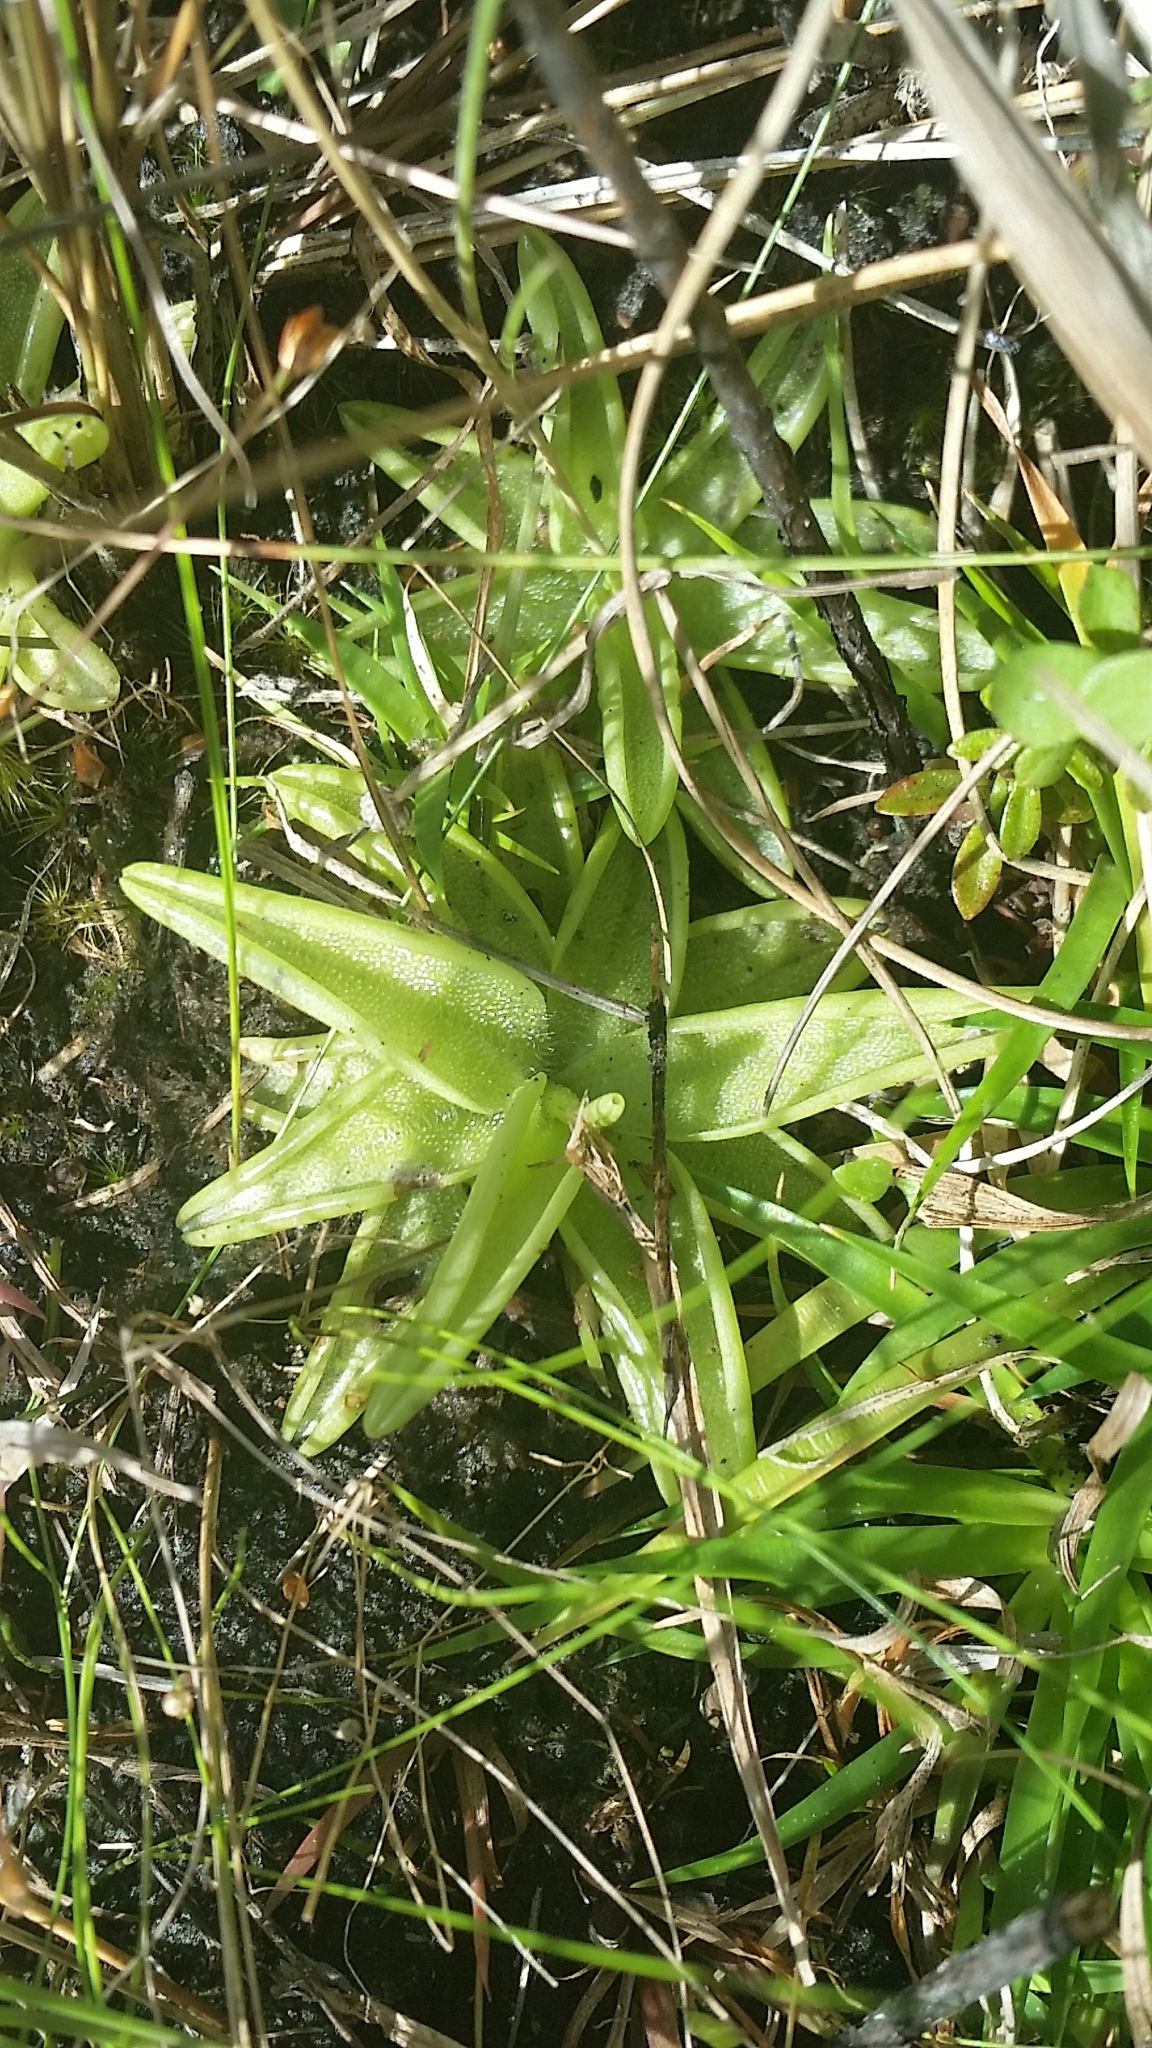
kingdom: Plantae
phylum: Tracheophyta
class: Magnoliopsida
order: Lamiales
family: Lentibulariaceae
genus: Pinguicula
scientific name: Pinguicula caerulea
